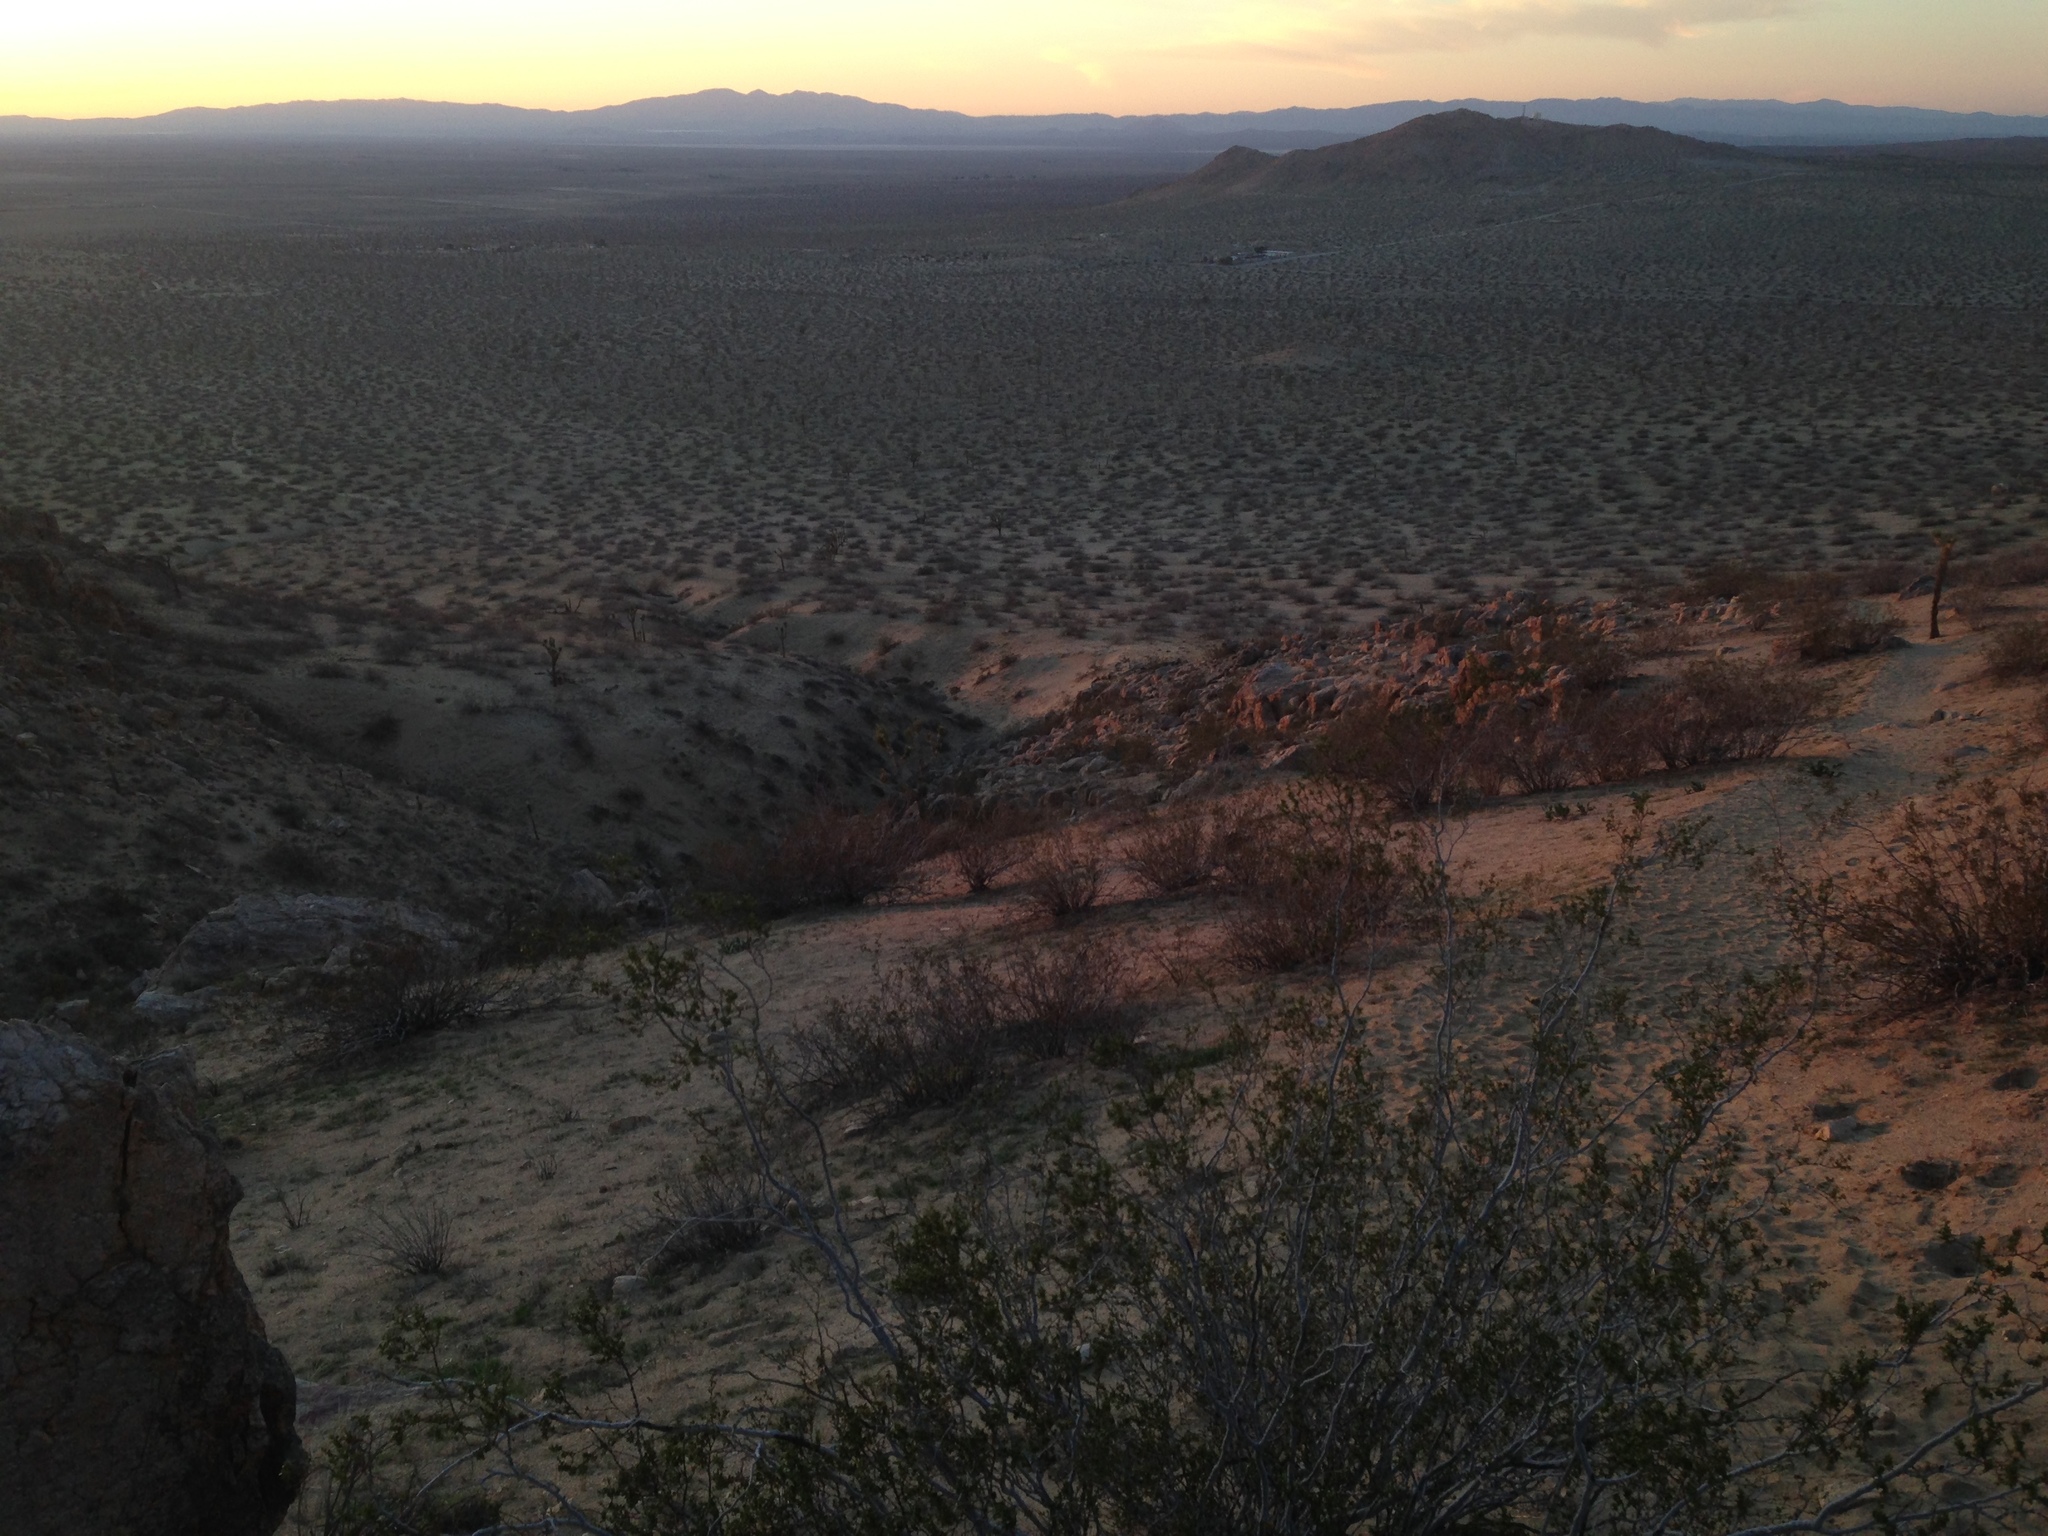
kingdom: Plantae
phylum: Tracheophyta
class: Magnoliopsida
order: Zygophyllales
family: Zygophyllaceae
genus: Larrea
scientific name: Larrea tridentata
